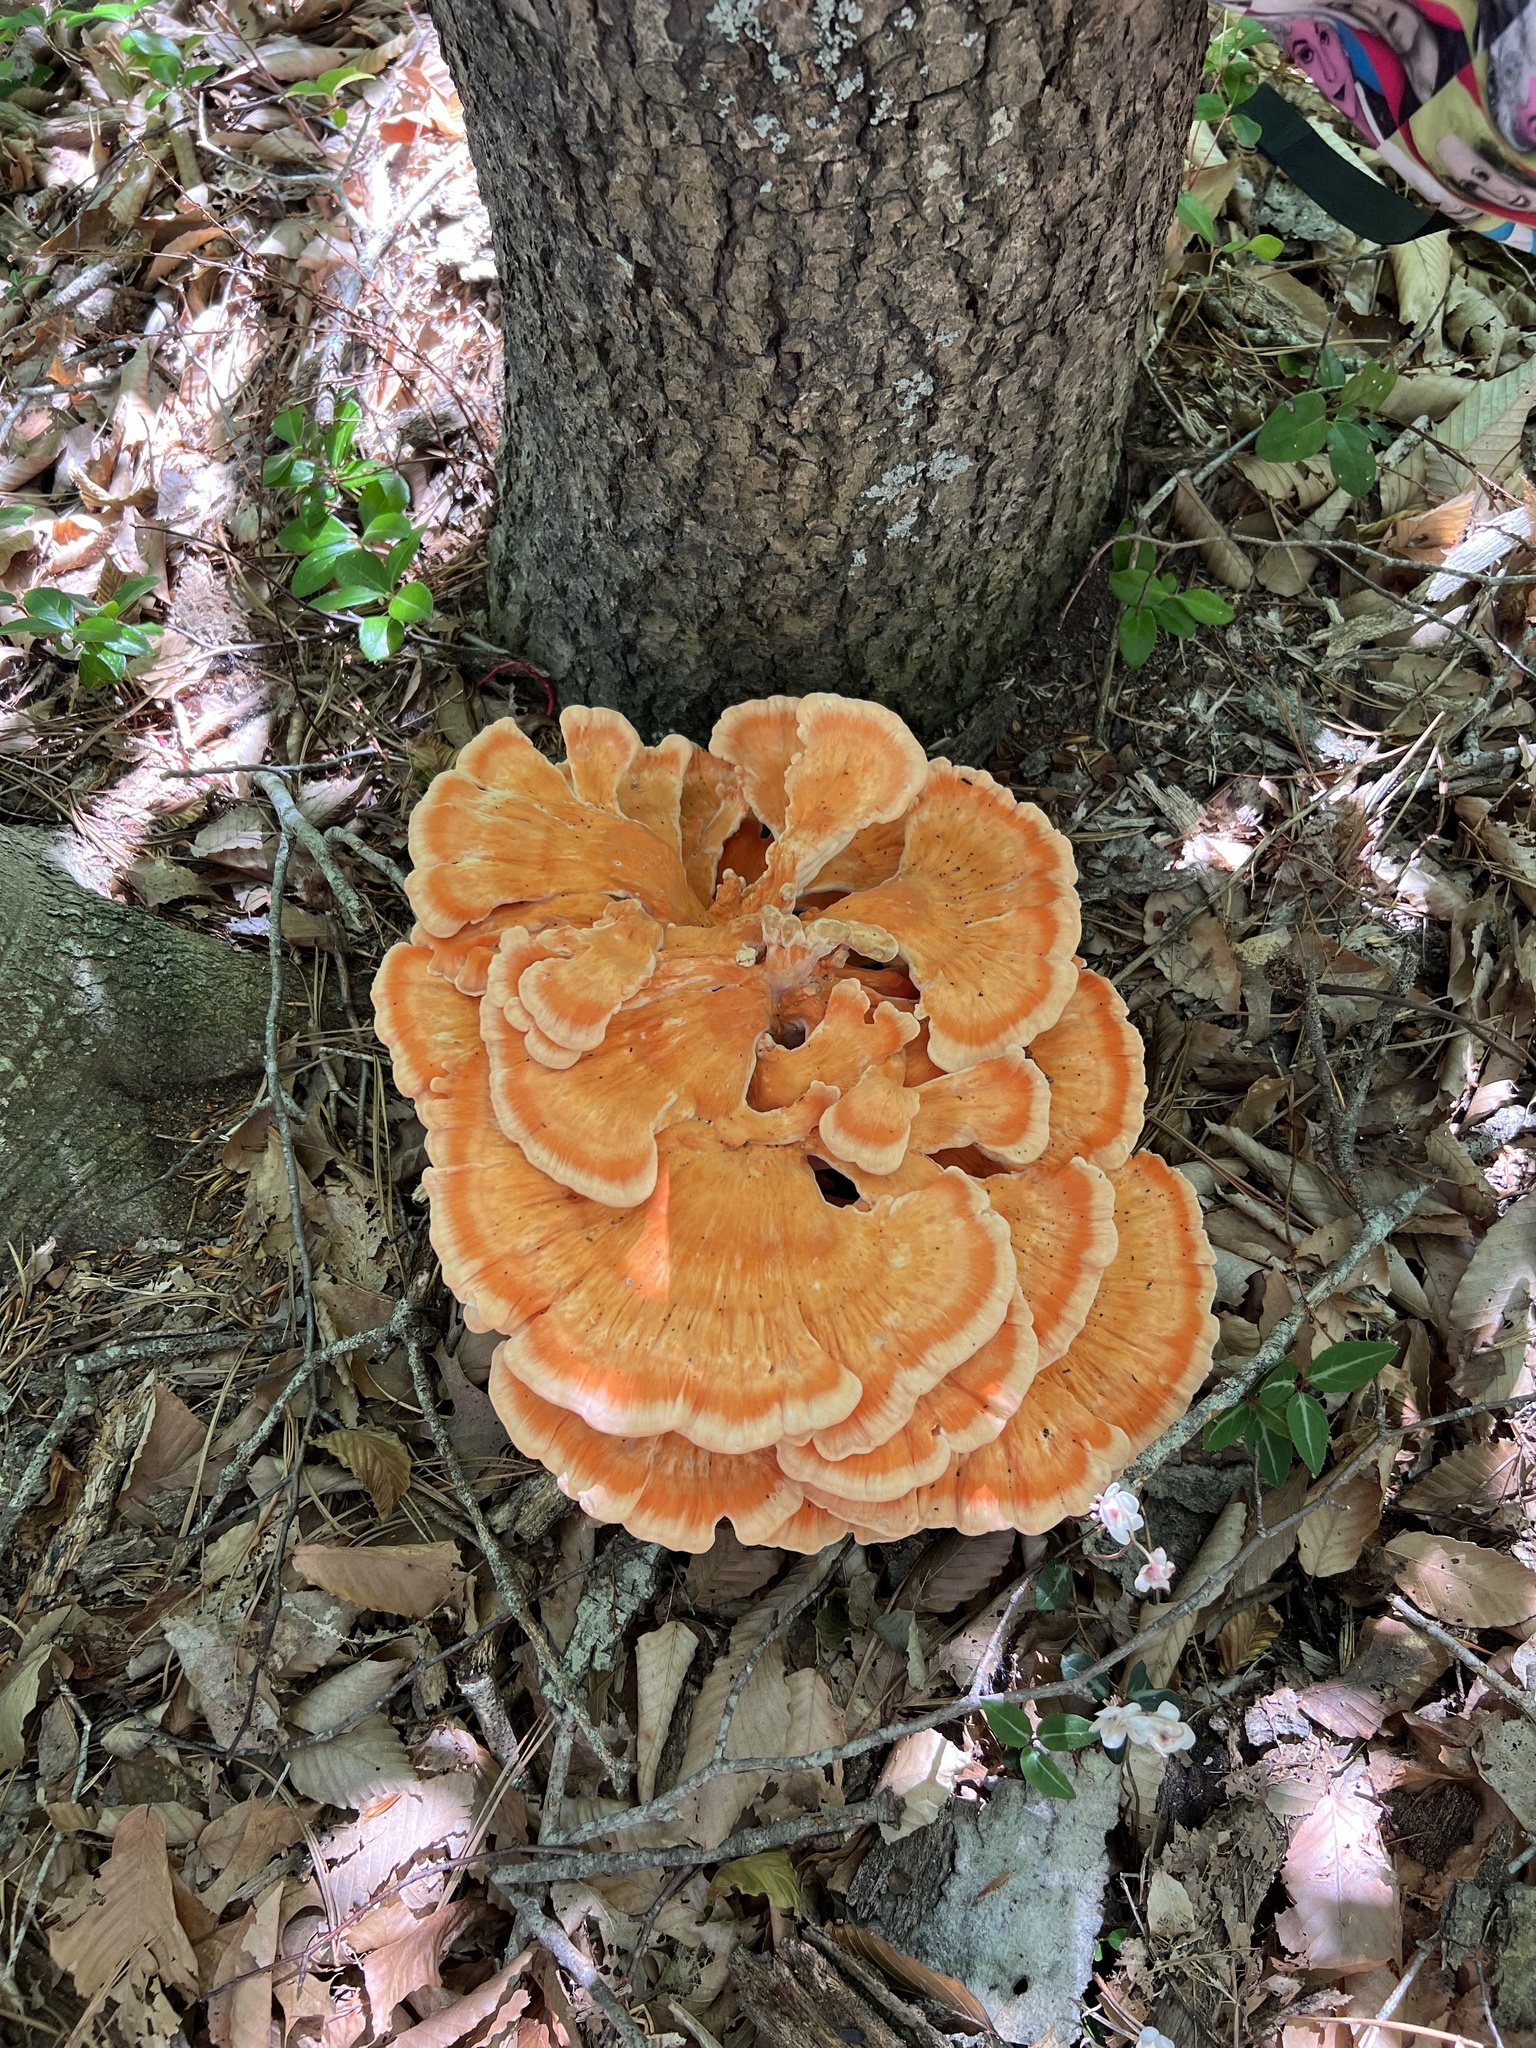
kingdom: Fungi
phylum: Basidiomycota
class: Agaricomycetes
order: Polyporales
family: Laetiporaceae
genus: Laetiporus
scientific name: Laetiporus sulphureus
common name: Chicken of the woods
